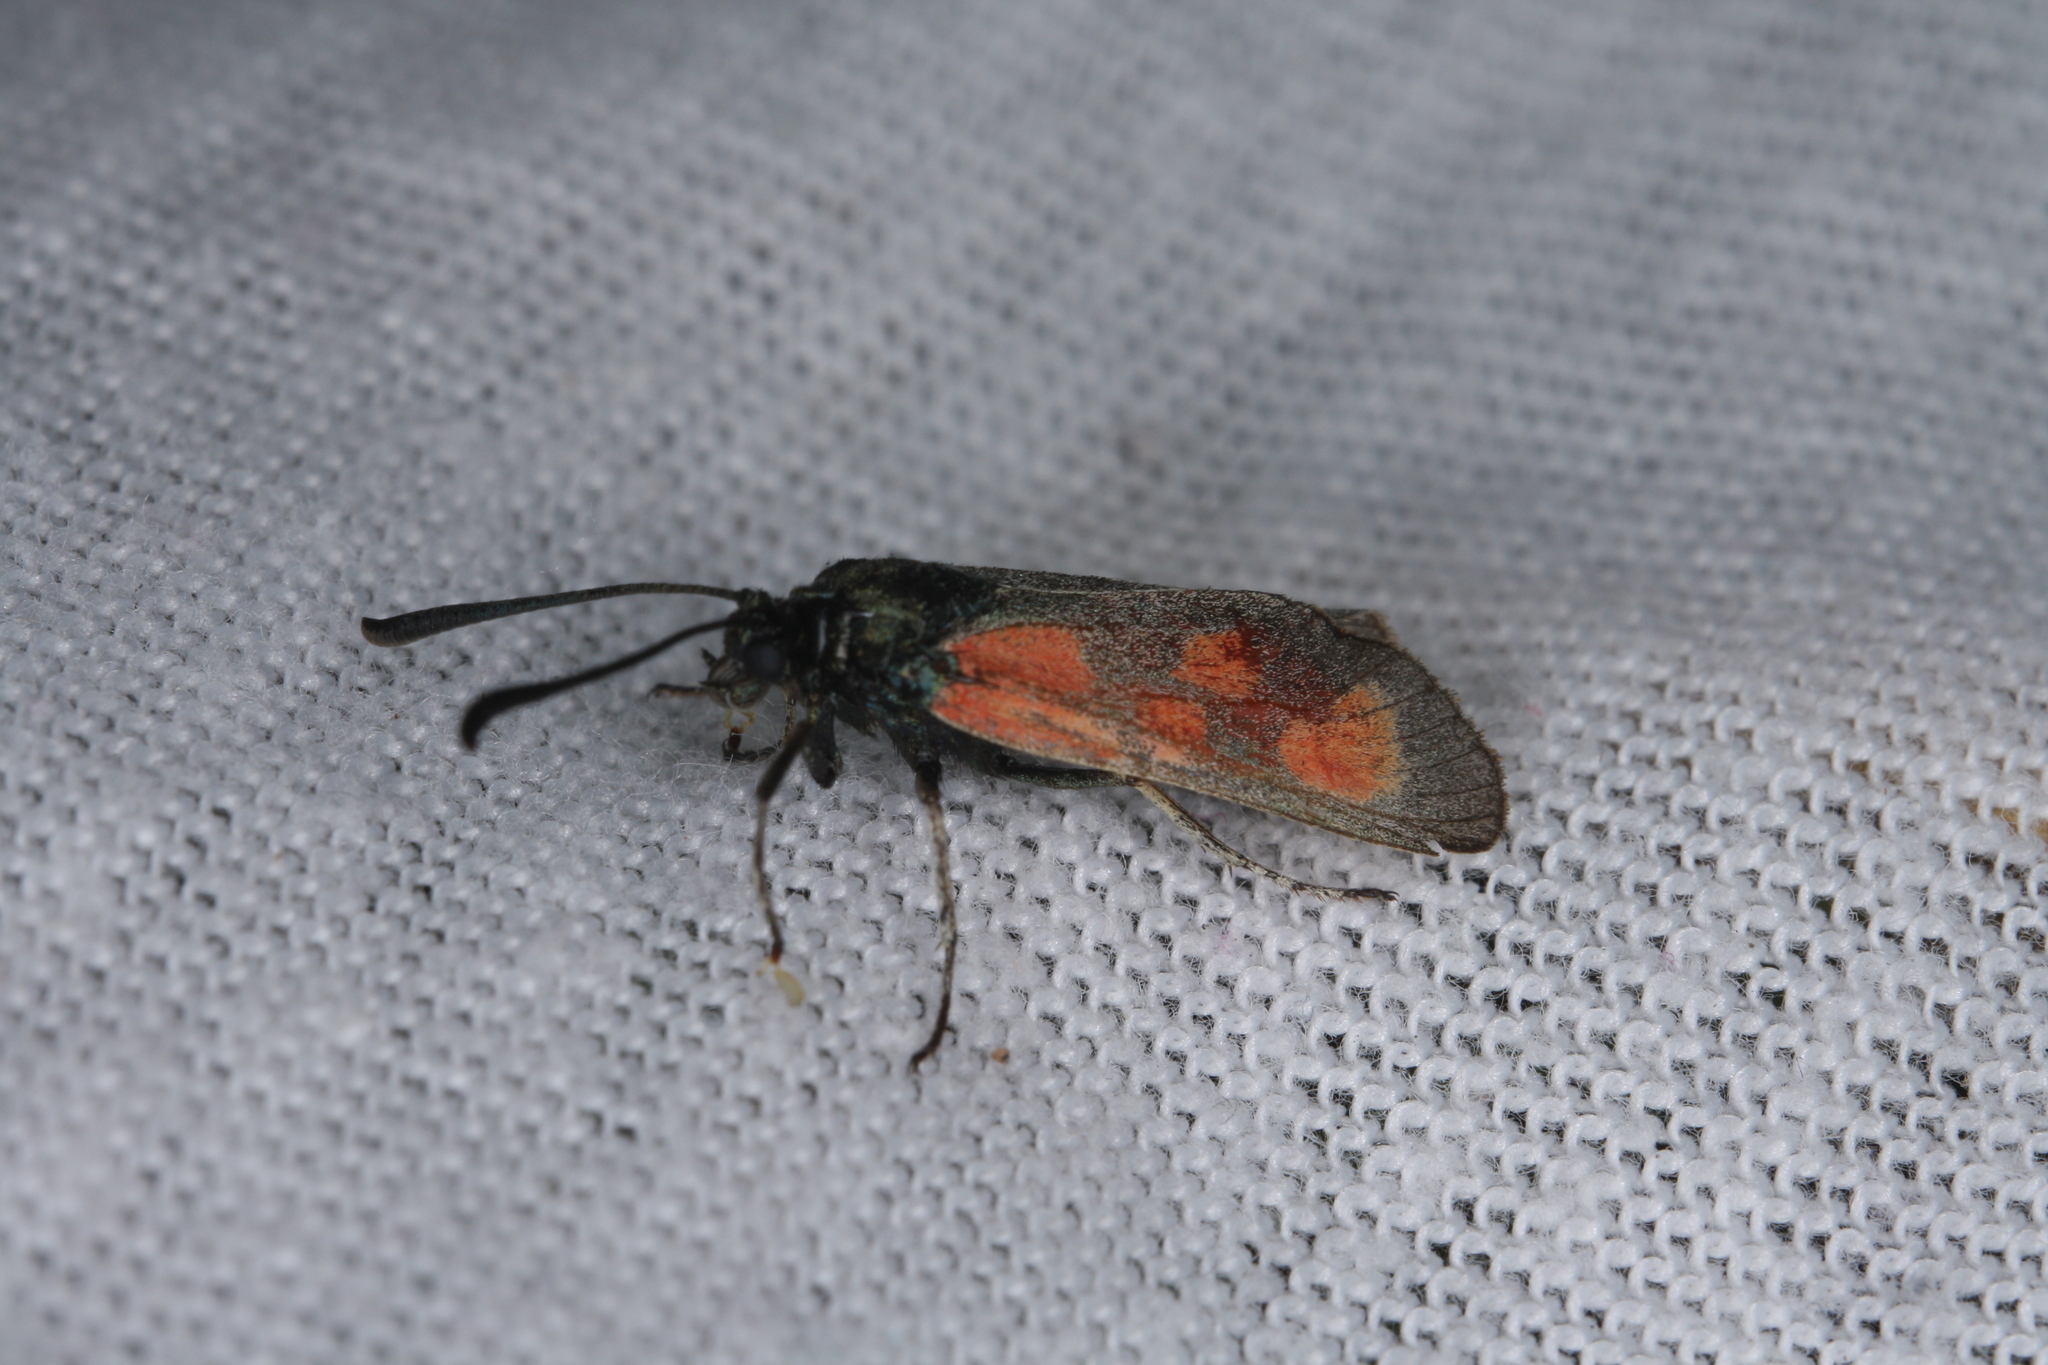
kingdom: Animalia
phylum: Arthropoda
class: Insecta
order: Lepidoptera
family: Zygaenidae
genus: Zygaena
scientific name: Zygaena loti
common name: Slender scotch burnet
